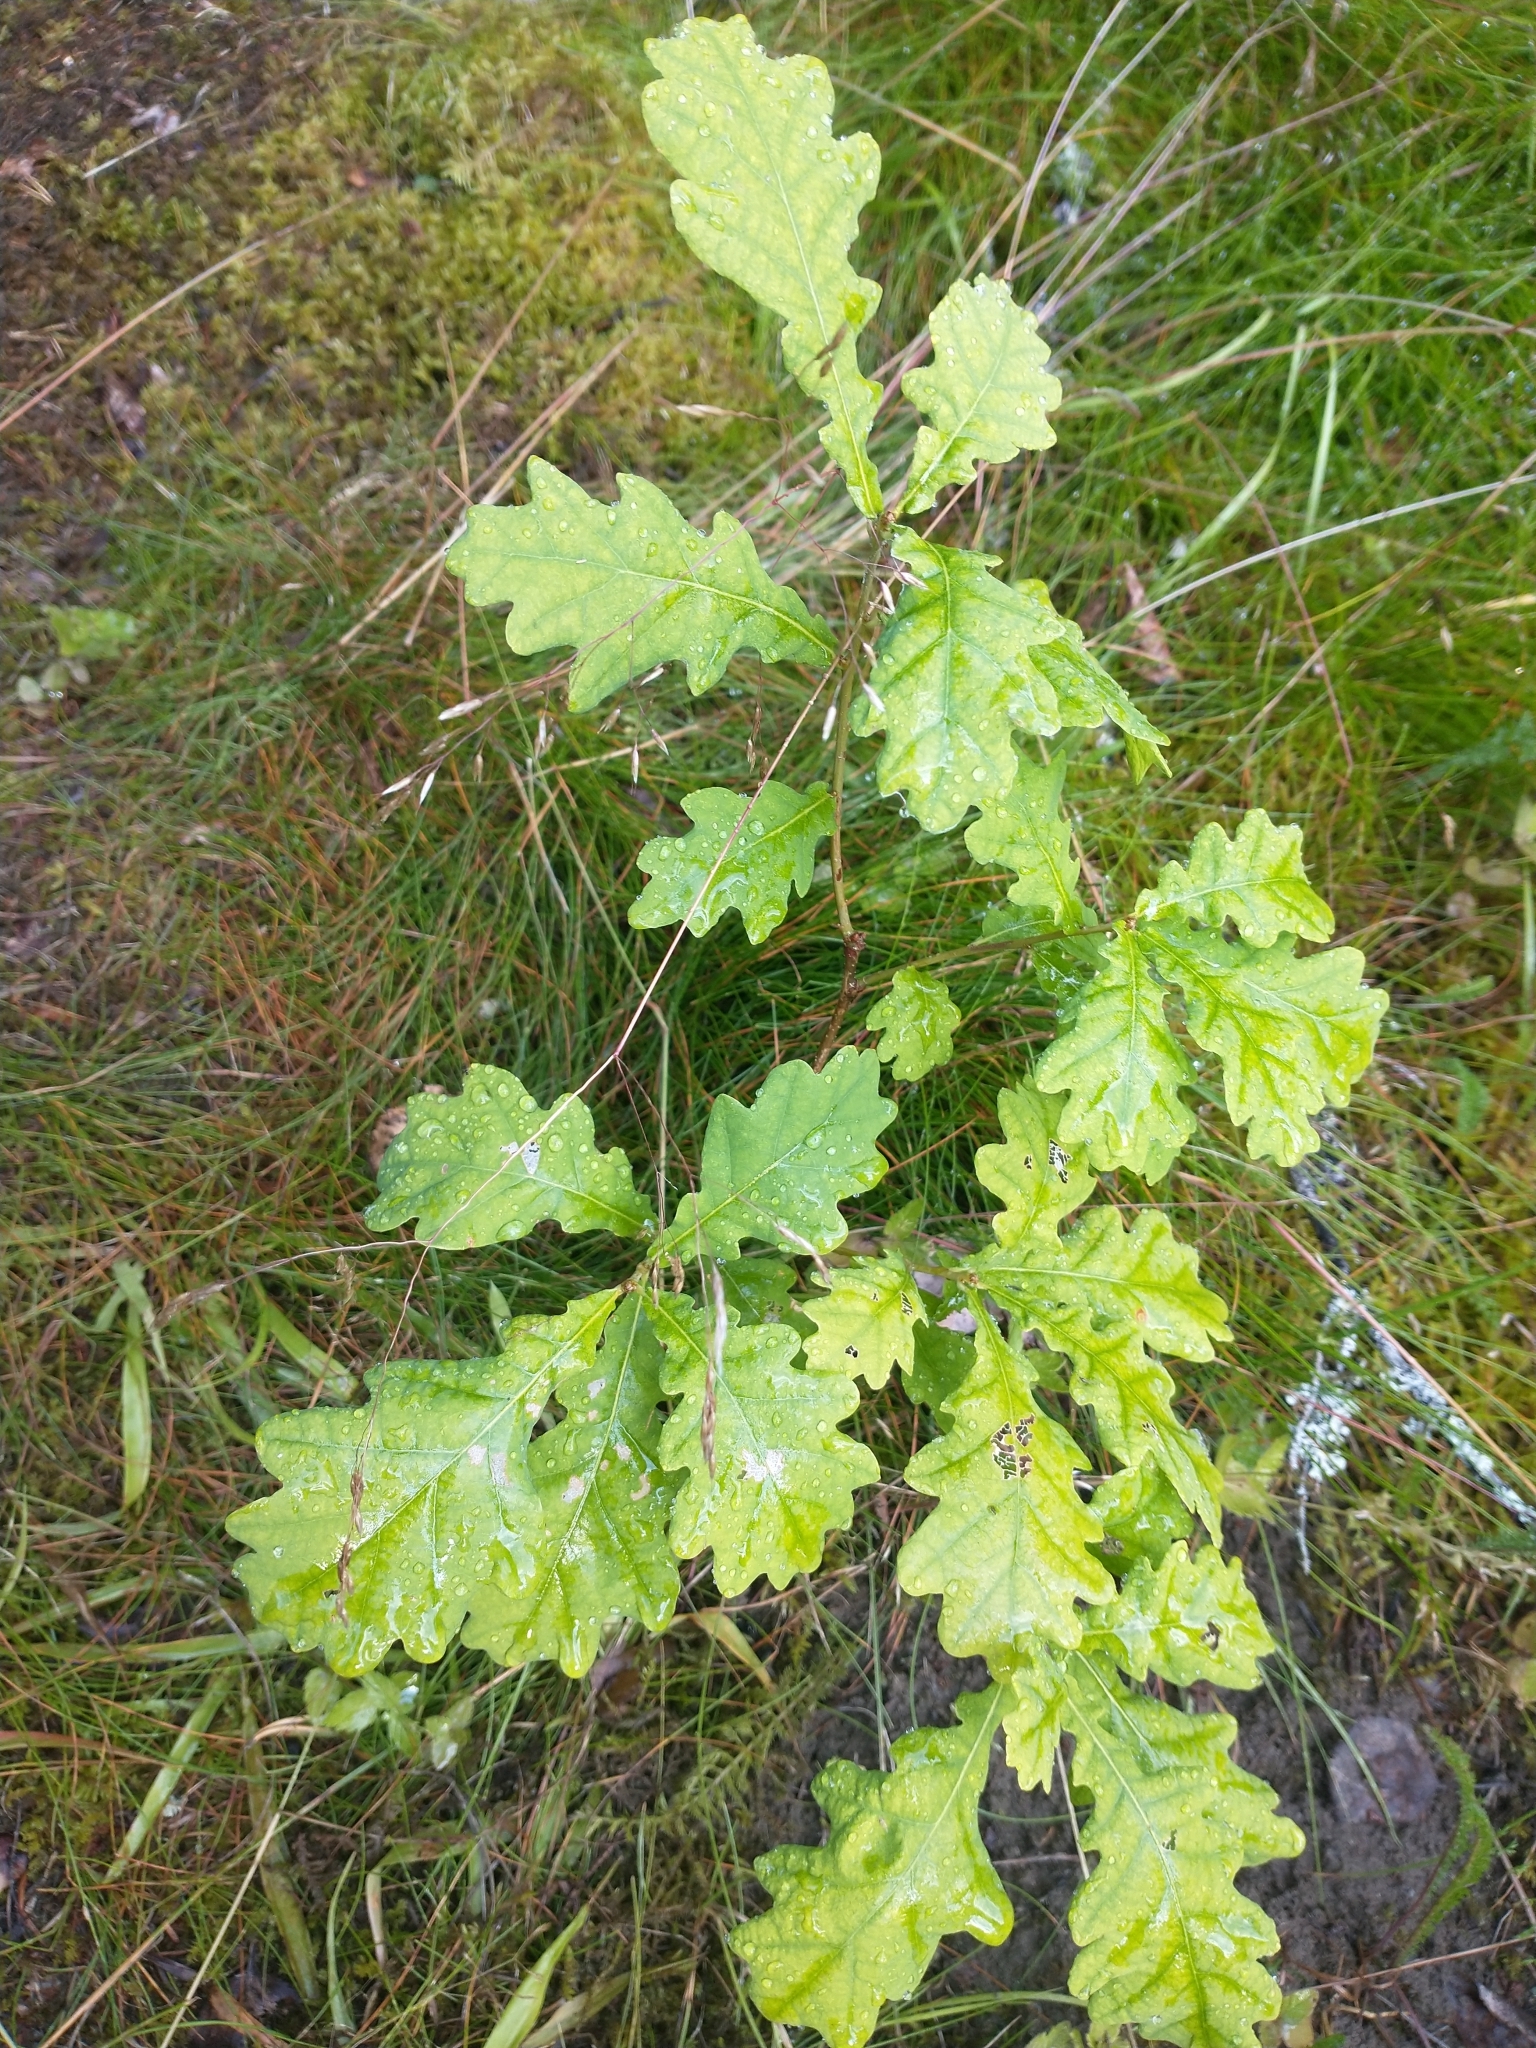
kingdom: Plantae
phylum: Tracheophyta
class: Magnoliopsida
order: Fagales
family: Fagaceae
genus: Quercus
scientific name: Quercus robur
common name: Pedunculate oak
